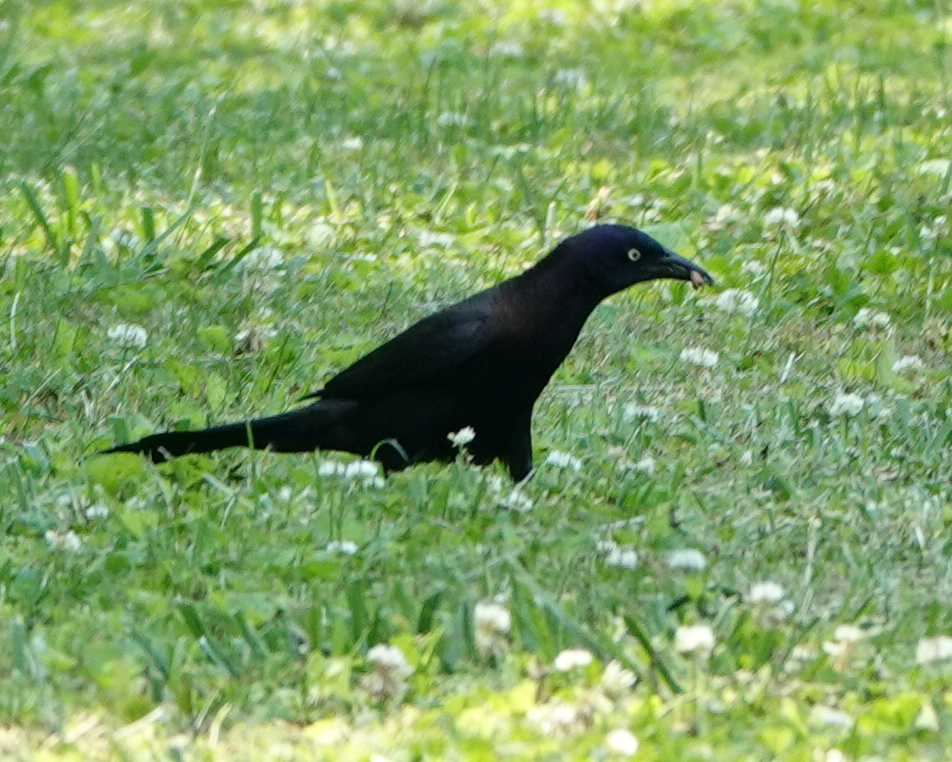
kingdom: Animalia
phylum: Chordata
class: Aves
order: Passeriformes
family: Icteridae
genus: Quiscalus
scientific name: Quiscalus quiscula
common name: Common grackle
